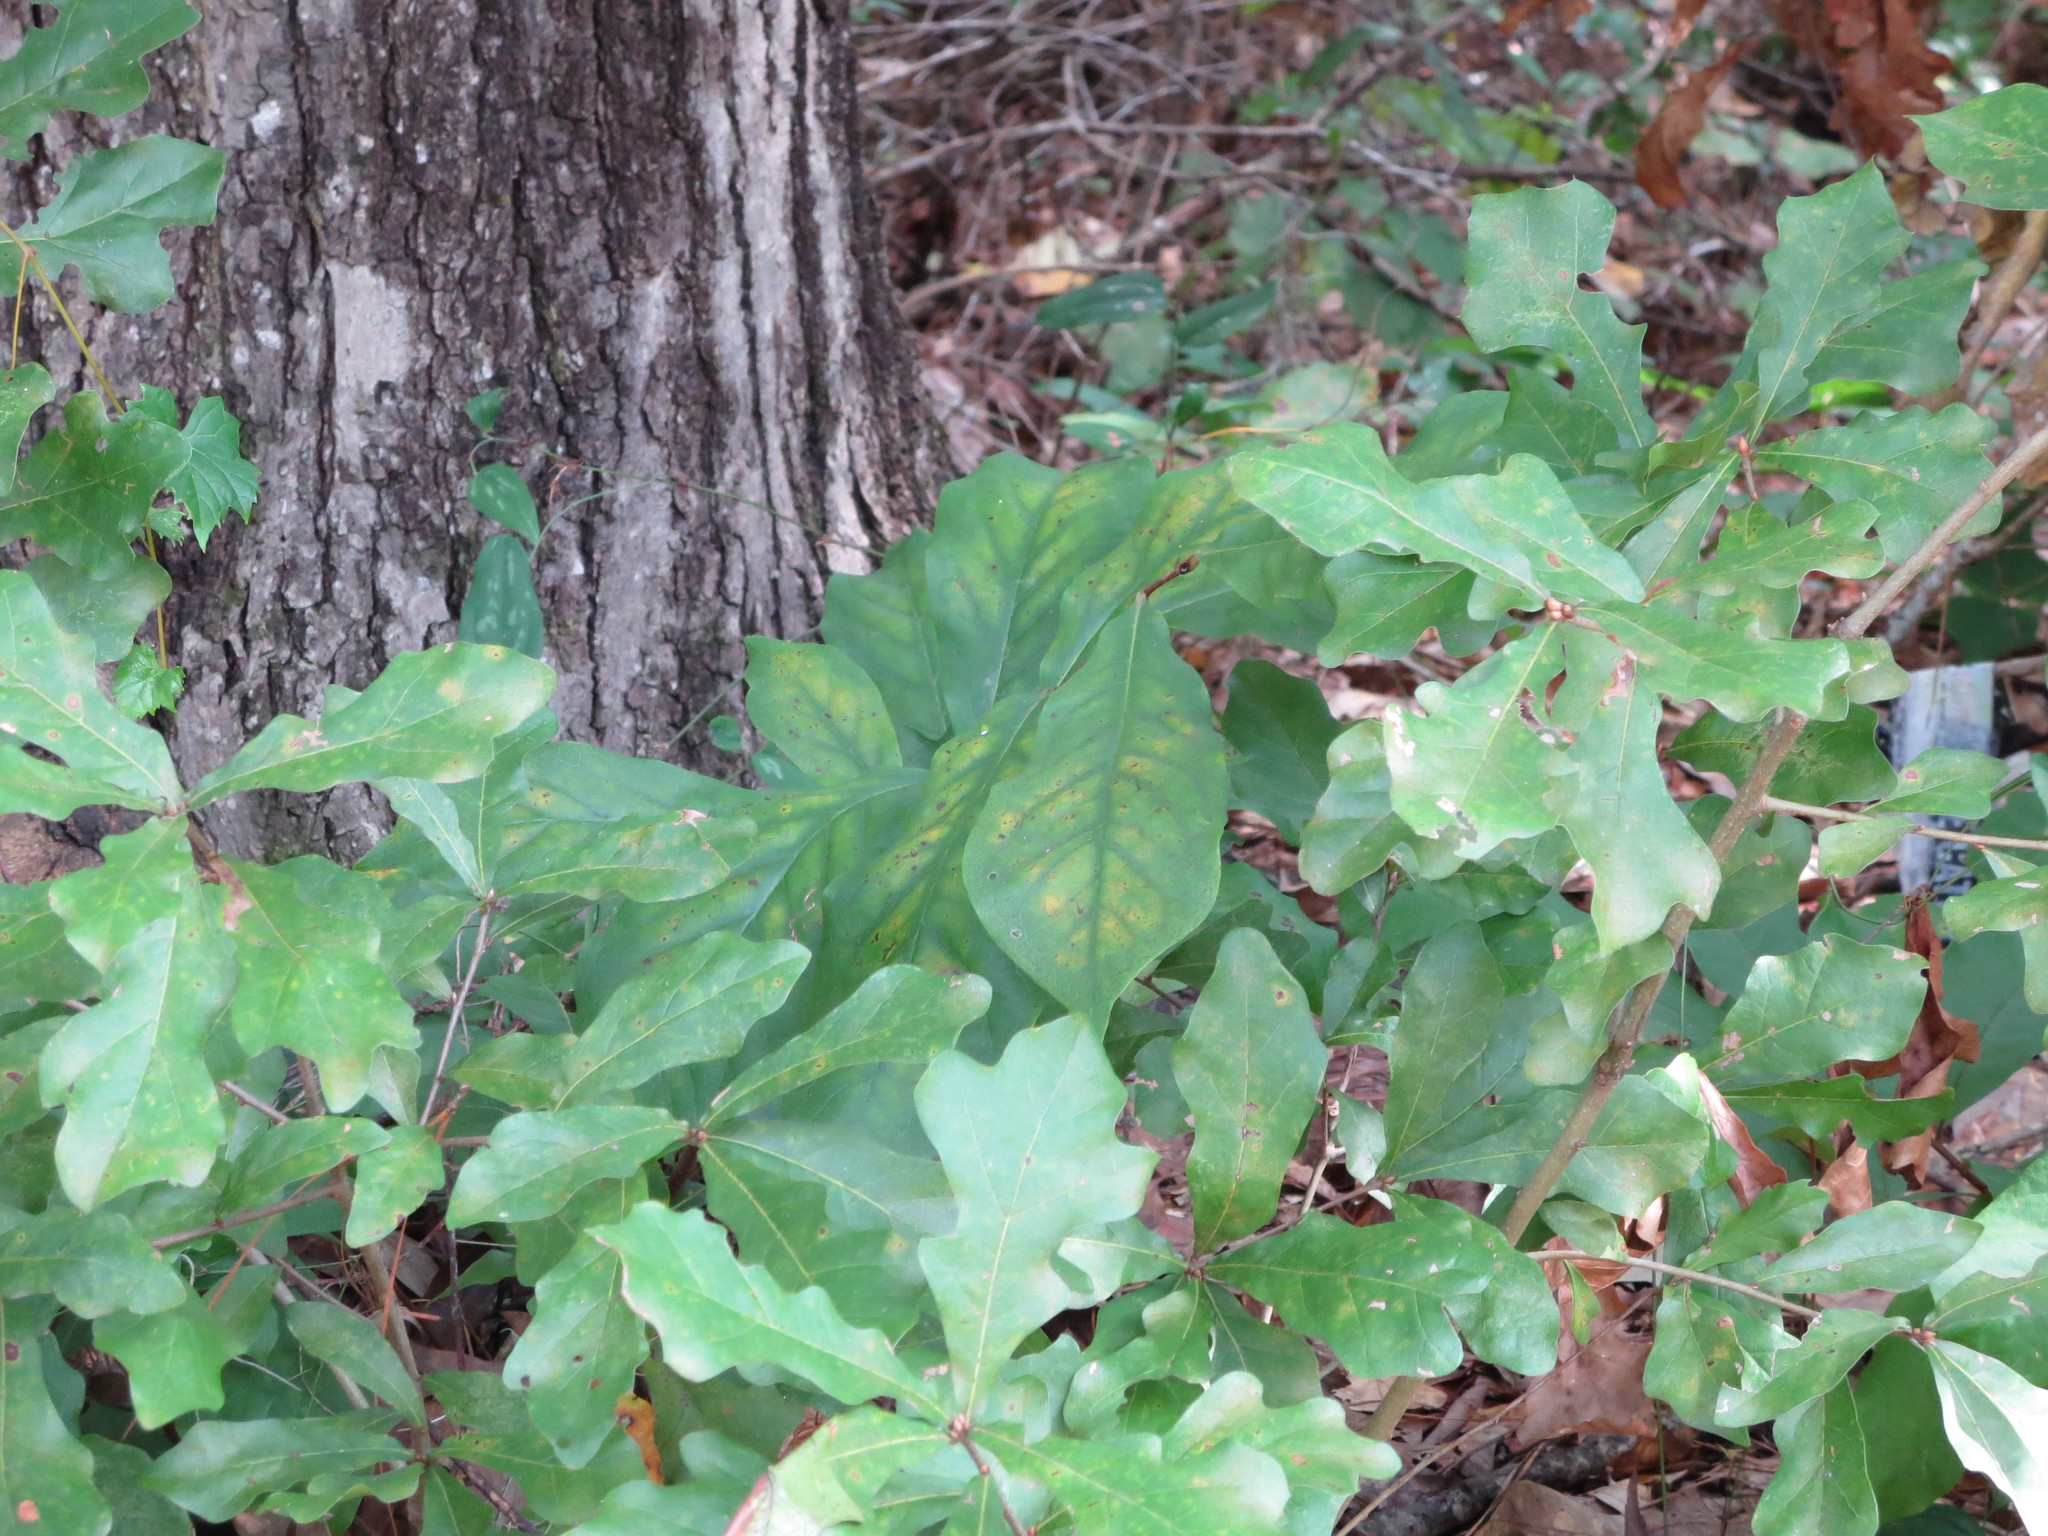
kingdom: Plantae
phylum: Tracheophyta
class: Magnoliopsida
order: Magnoliales
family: Annonaceae
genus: Asimina
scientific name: Asimina parviflora
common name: Dwarf pawpaw
